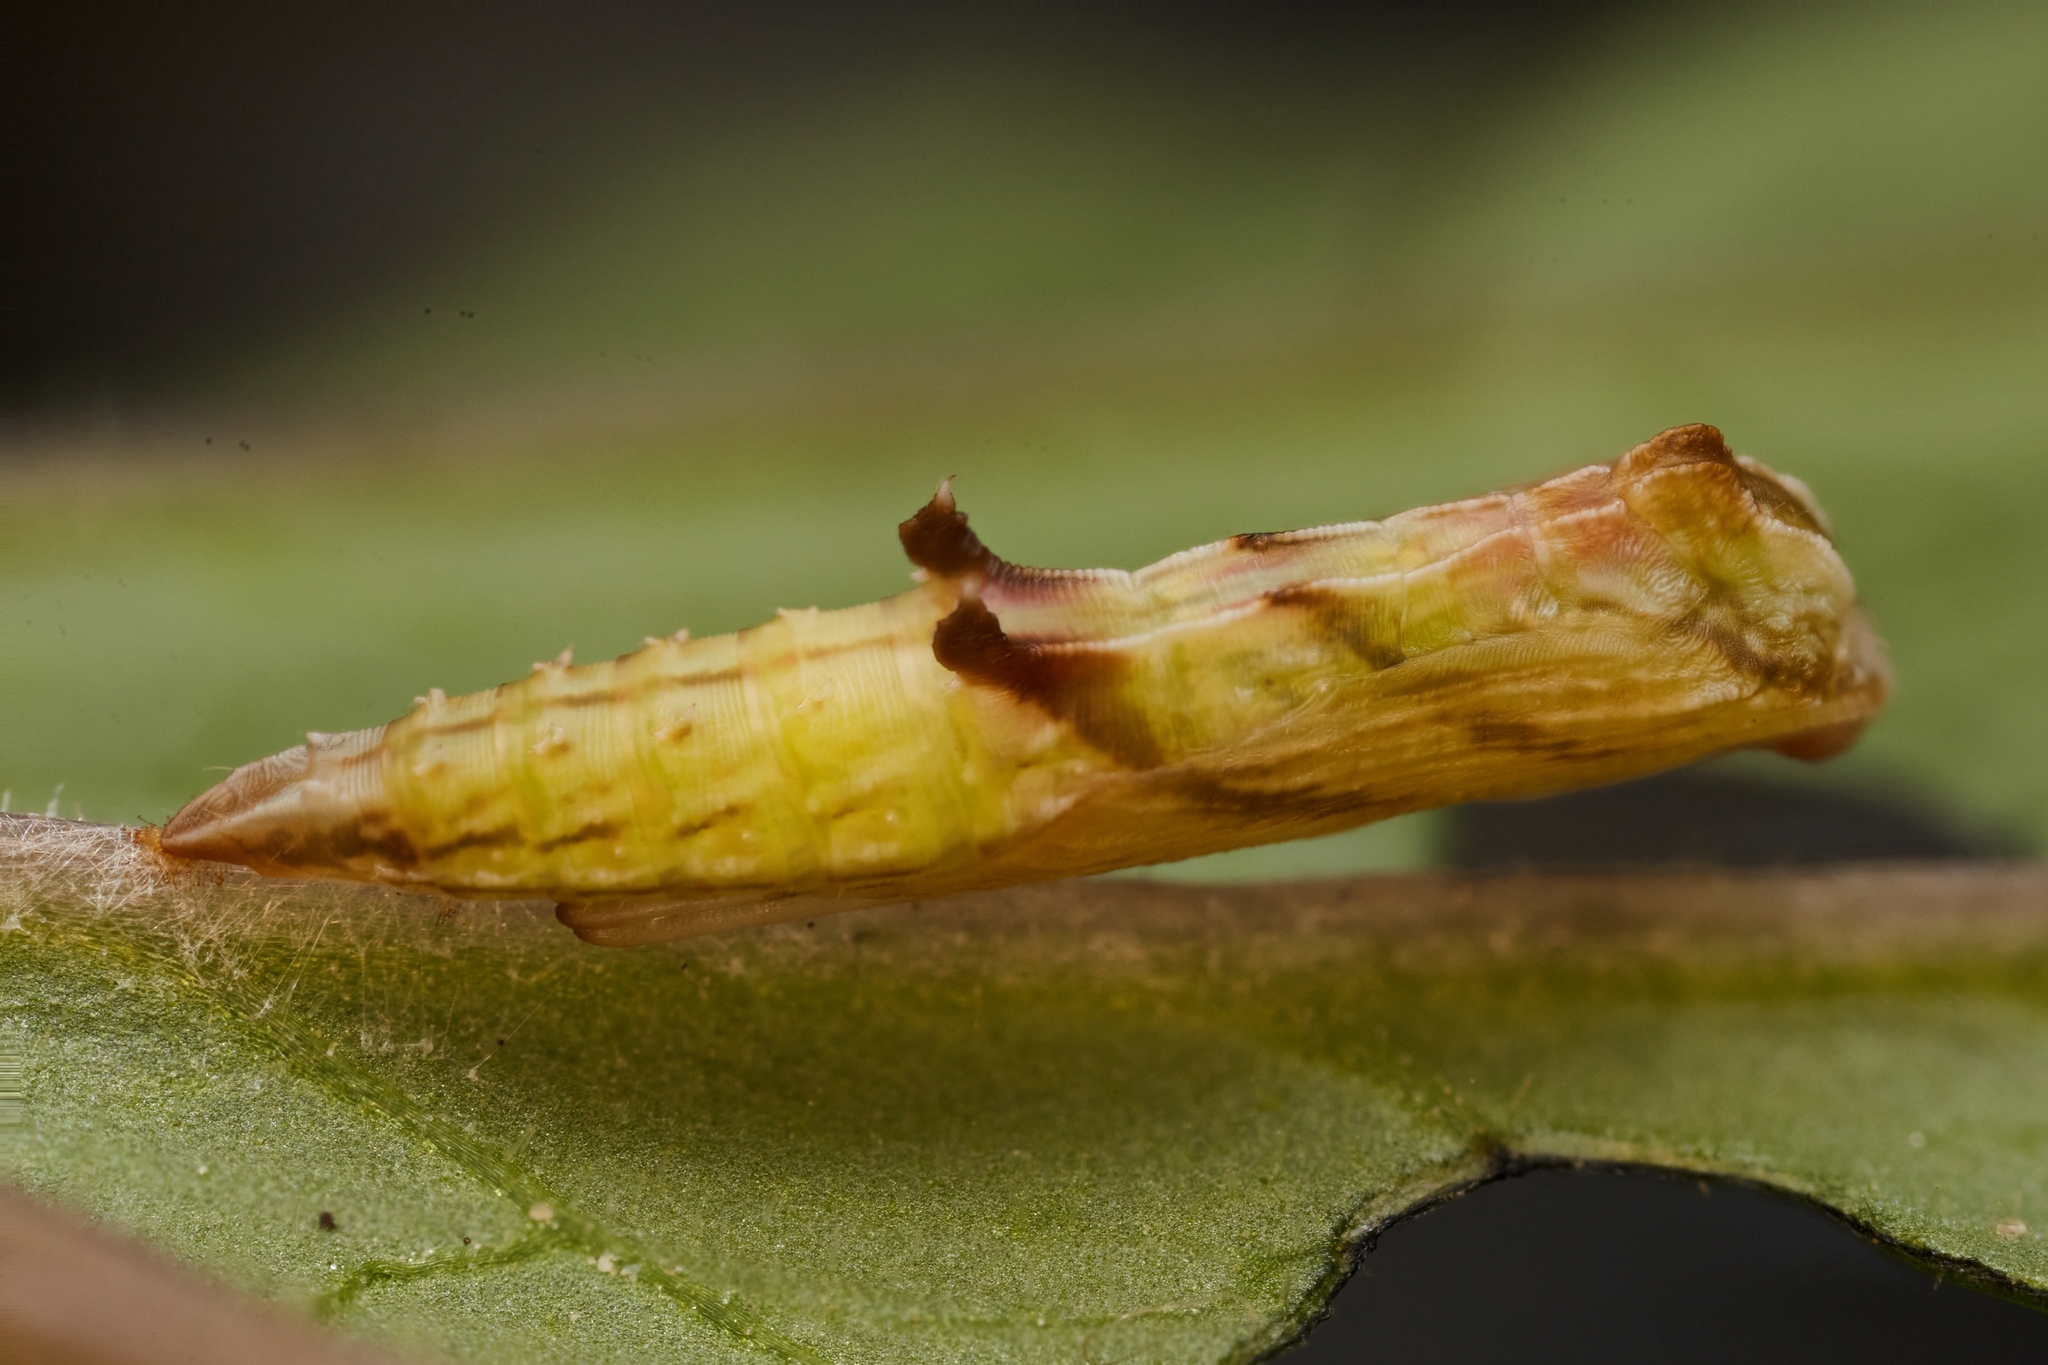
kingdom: Animalia
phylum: Arthropoda
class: Insecta
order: Lepidoptera
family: Pterophoridae
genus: Amblyptilia
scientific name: Amblyptilia pica
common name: Geranium plume moth
